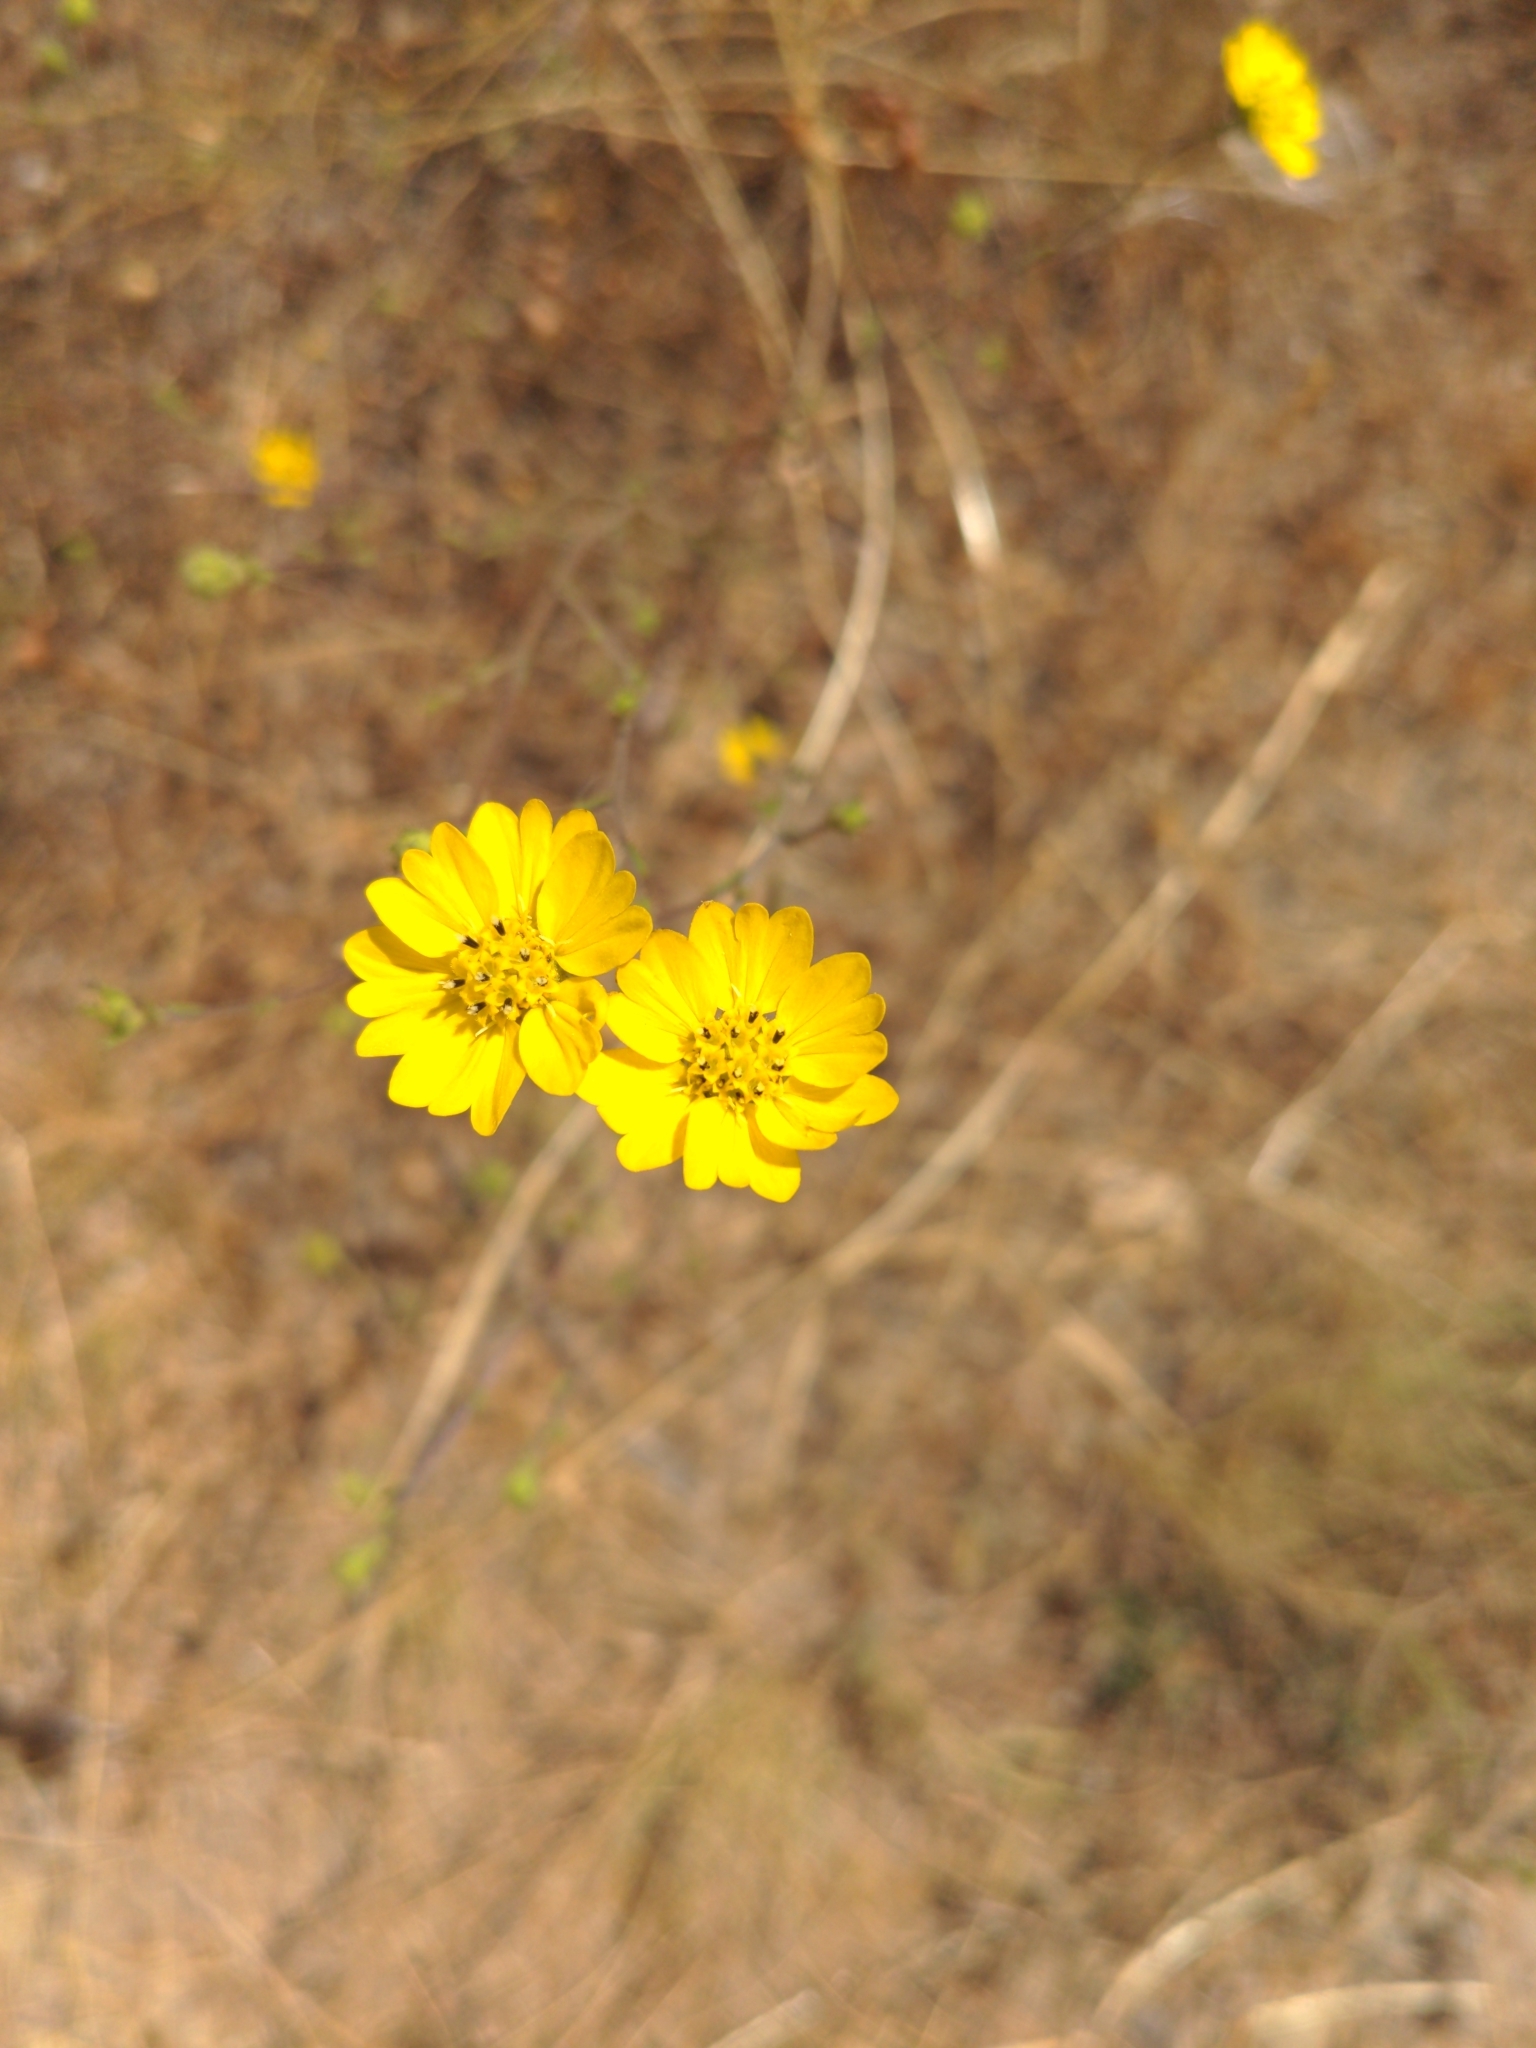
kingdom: Plantae
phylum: Tracheophyta
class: Magnoliopsida
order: Asterales
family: Asteraceae
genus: Hemizonia
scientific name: Hemizonia congesta
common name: Hayfield tarweed
